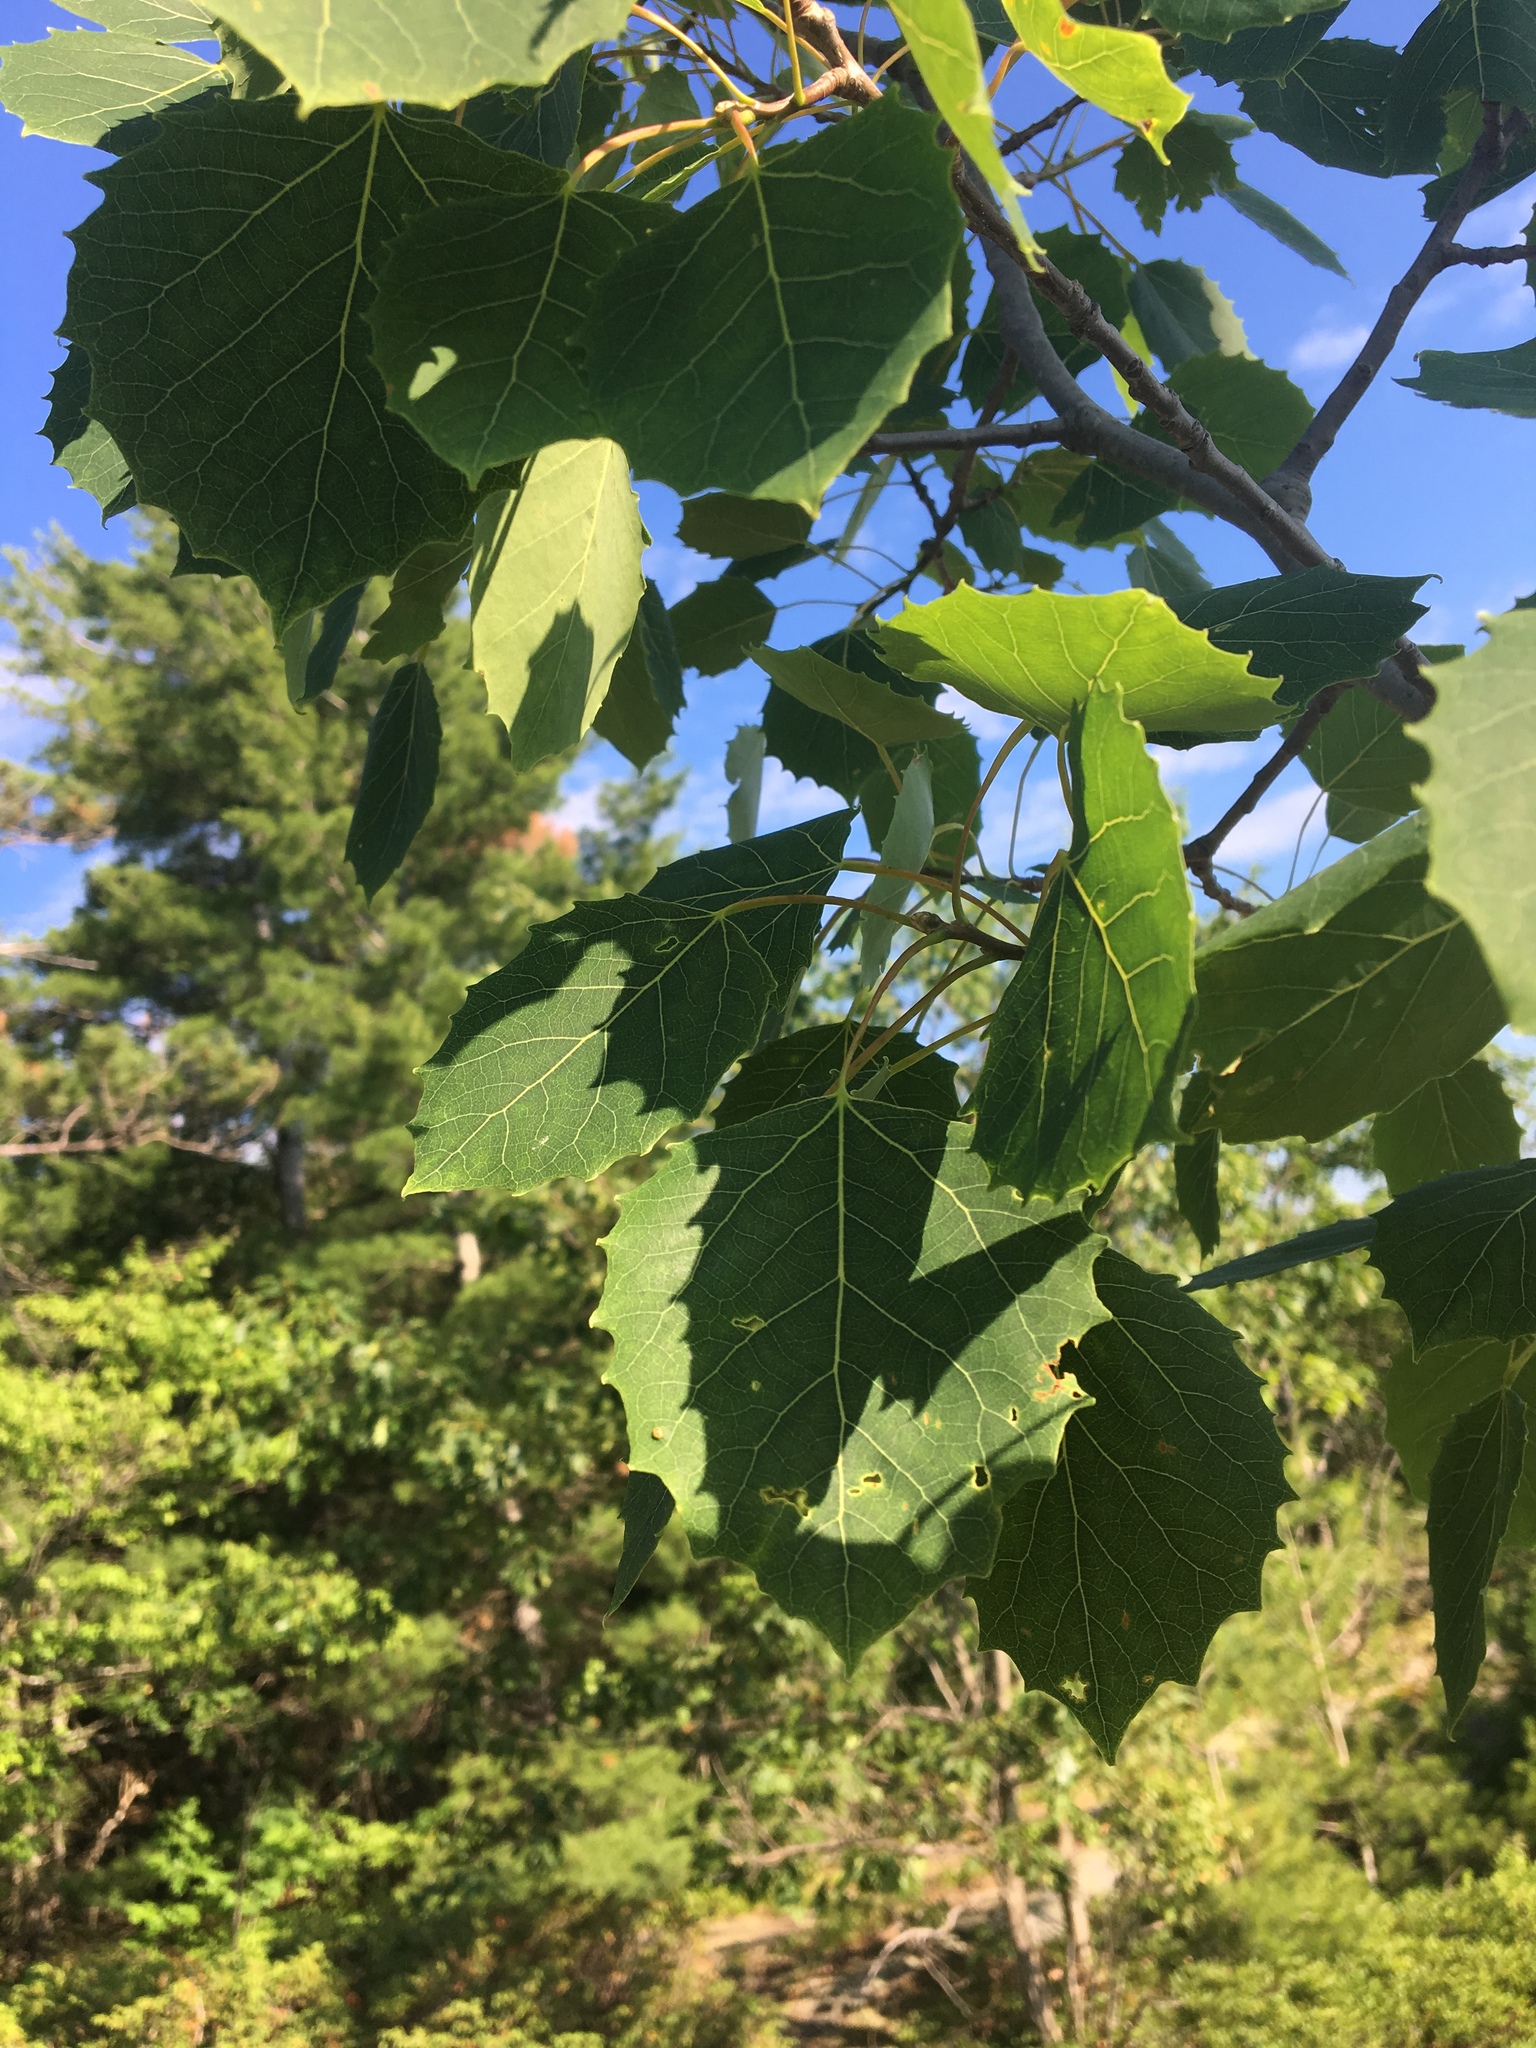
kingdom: Plantae
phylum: Tracheophyta
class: Magnoliopsida
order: Malpighiales
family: Salicaceae
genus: Populus
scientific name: Populus grandidentata
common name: Bigtooth aspen
